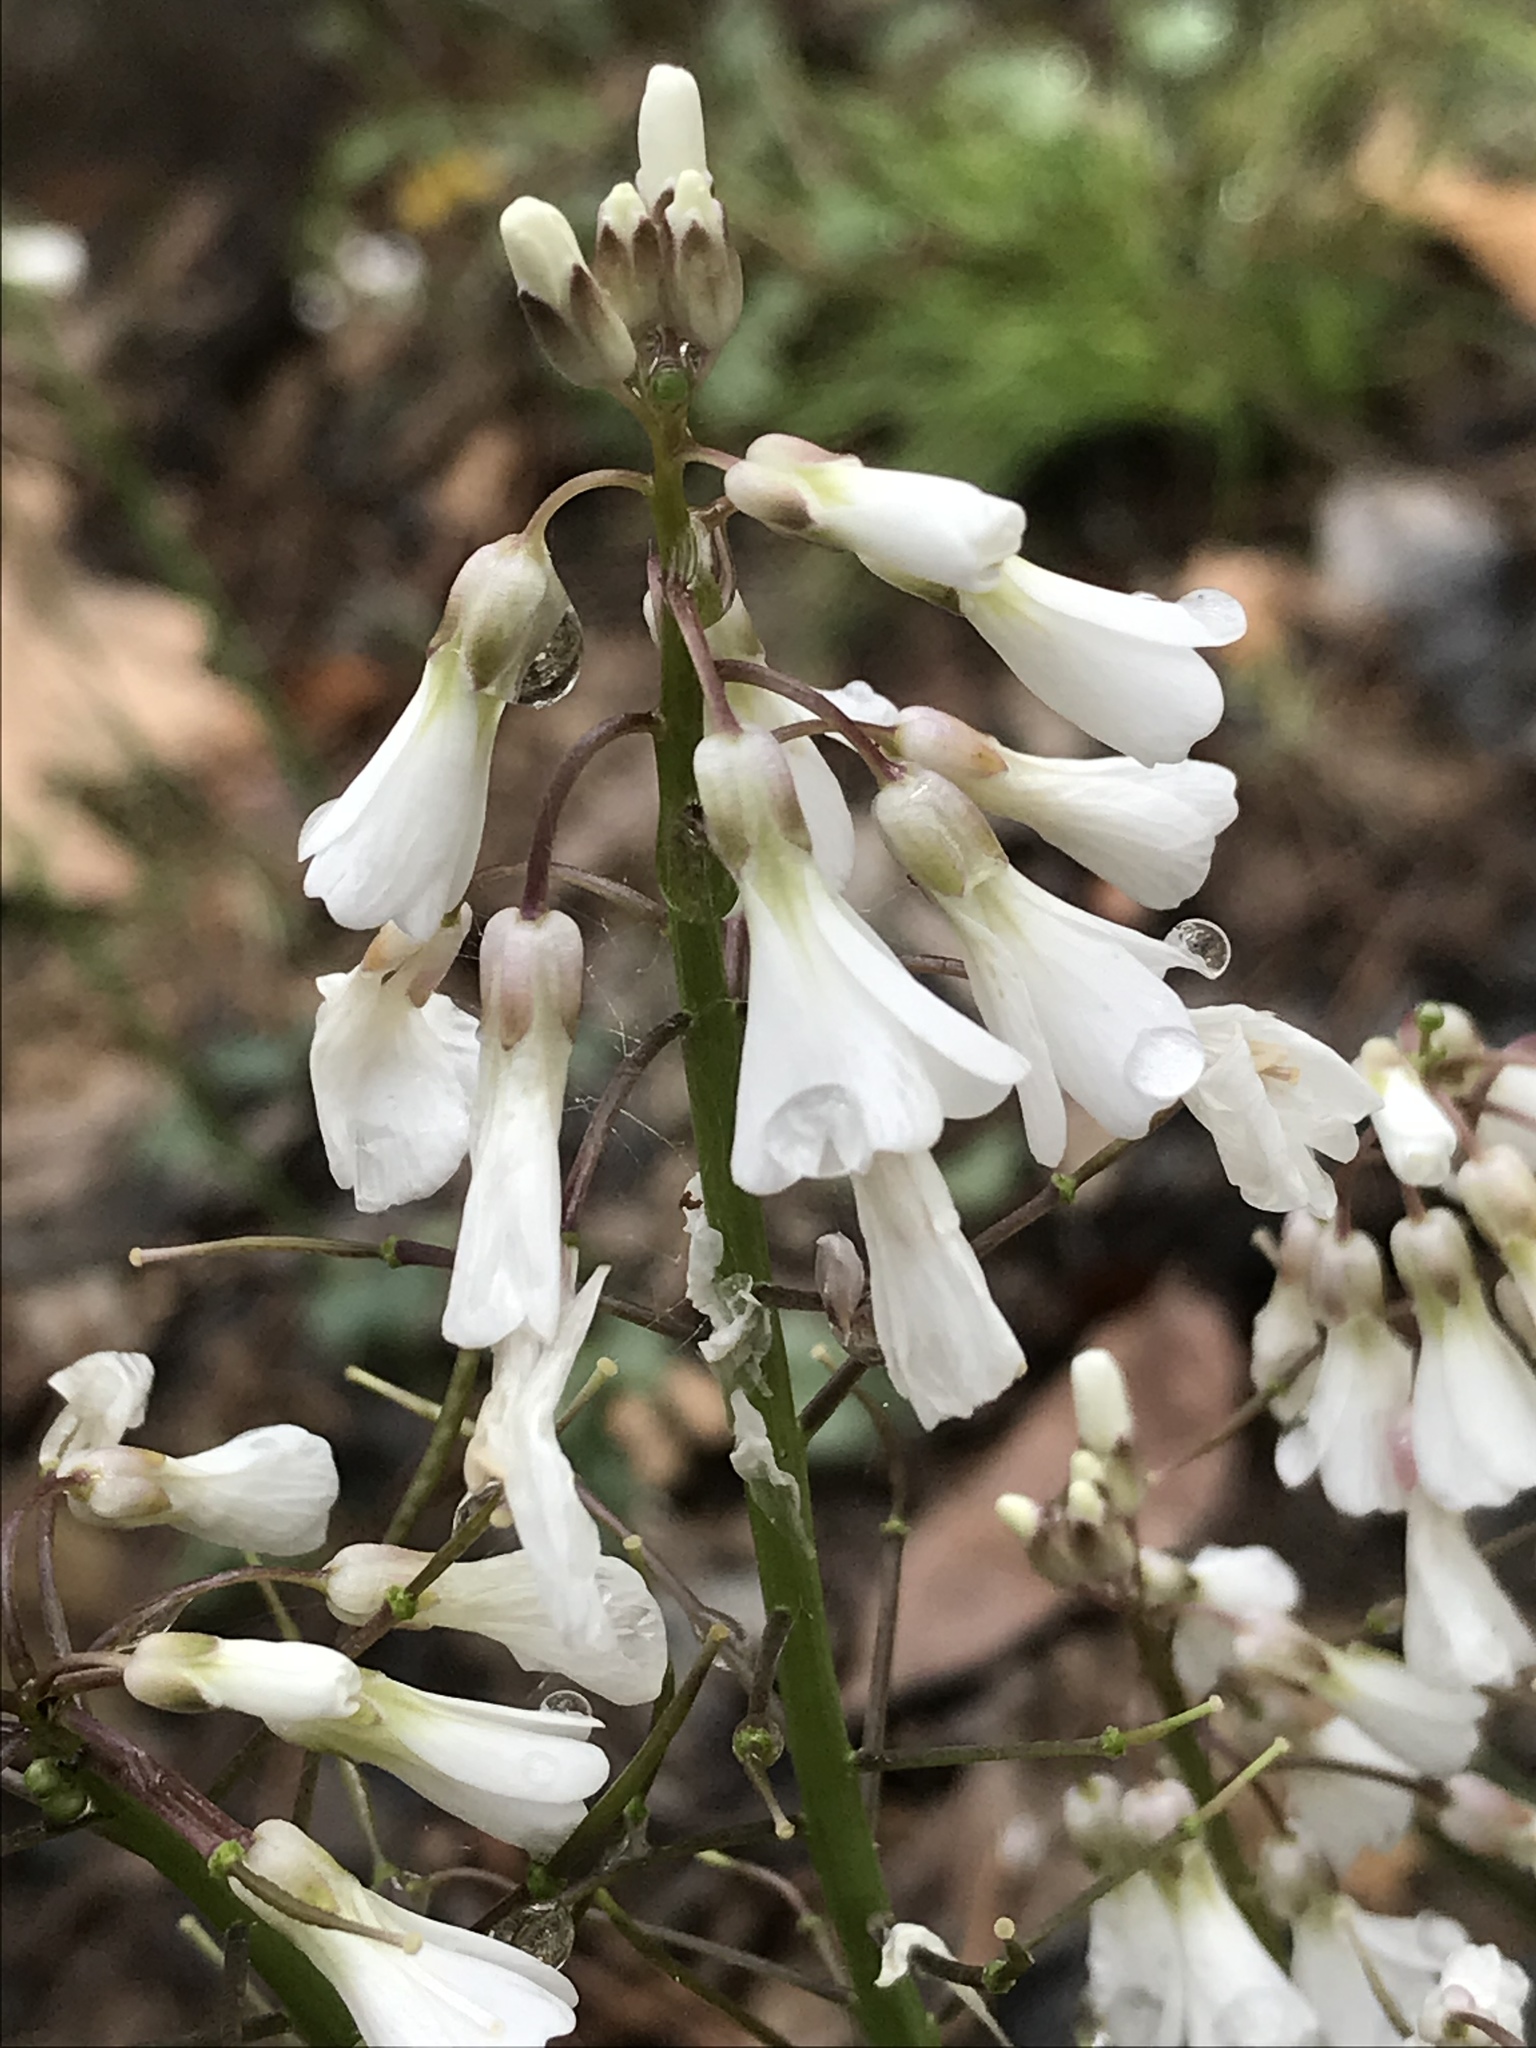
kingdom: Plantae
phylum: Tracheophyta
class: Magnoliopsida
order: Brassicales
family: Brassicaceae
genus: Cardamine
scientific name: Cardamine bulbosa
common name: Spring cress
